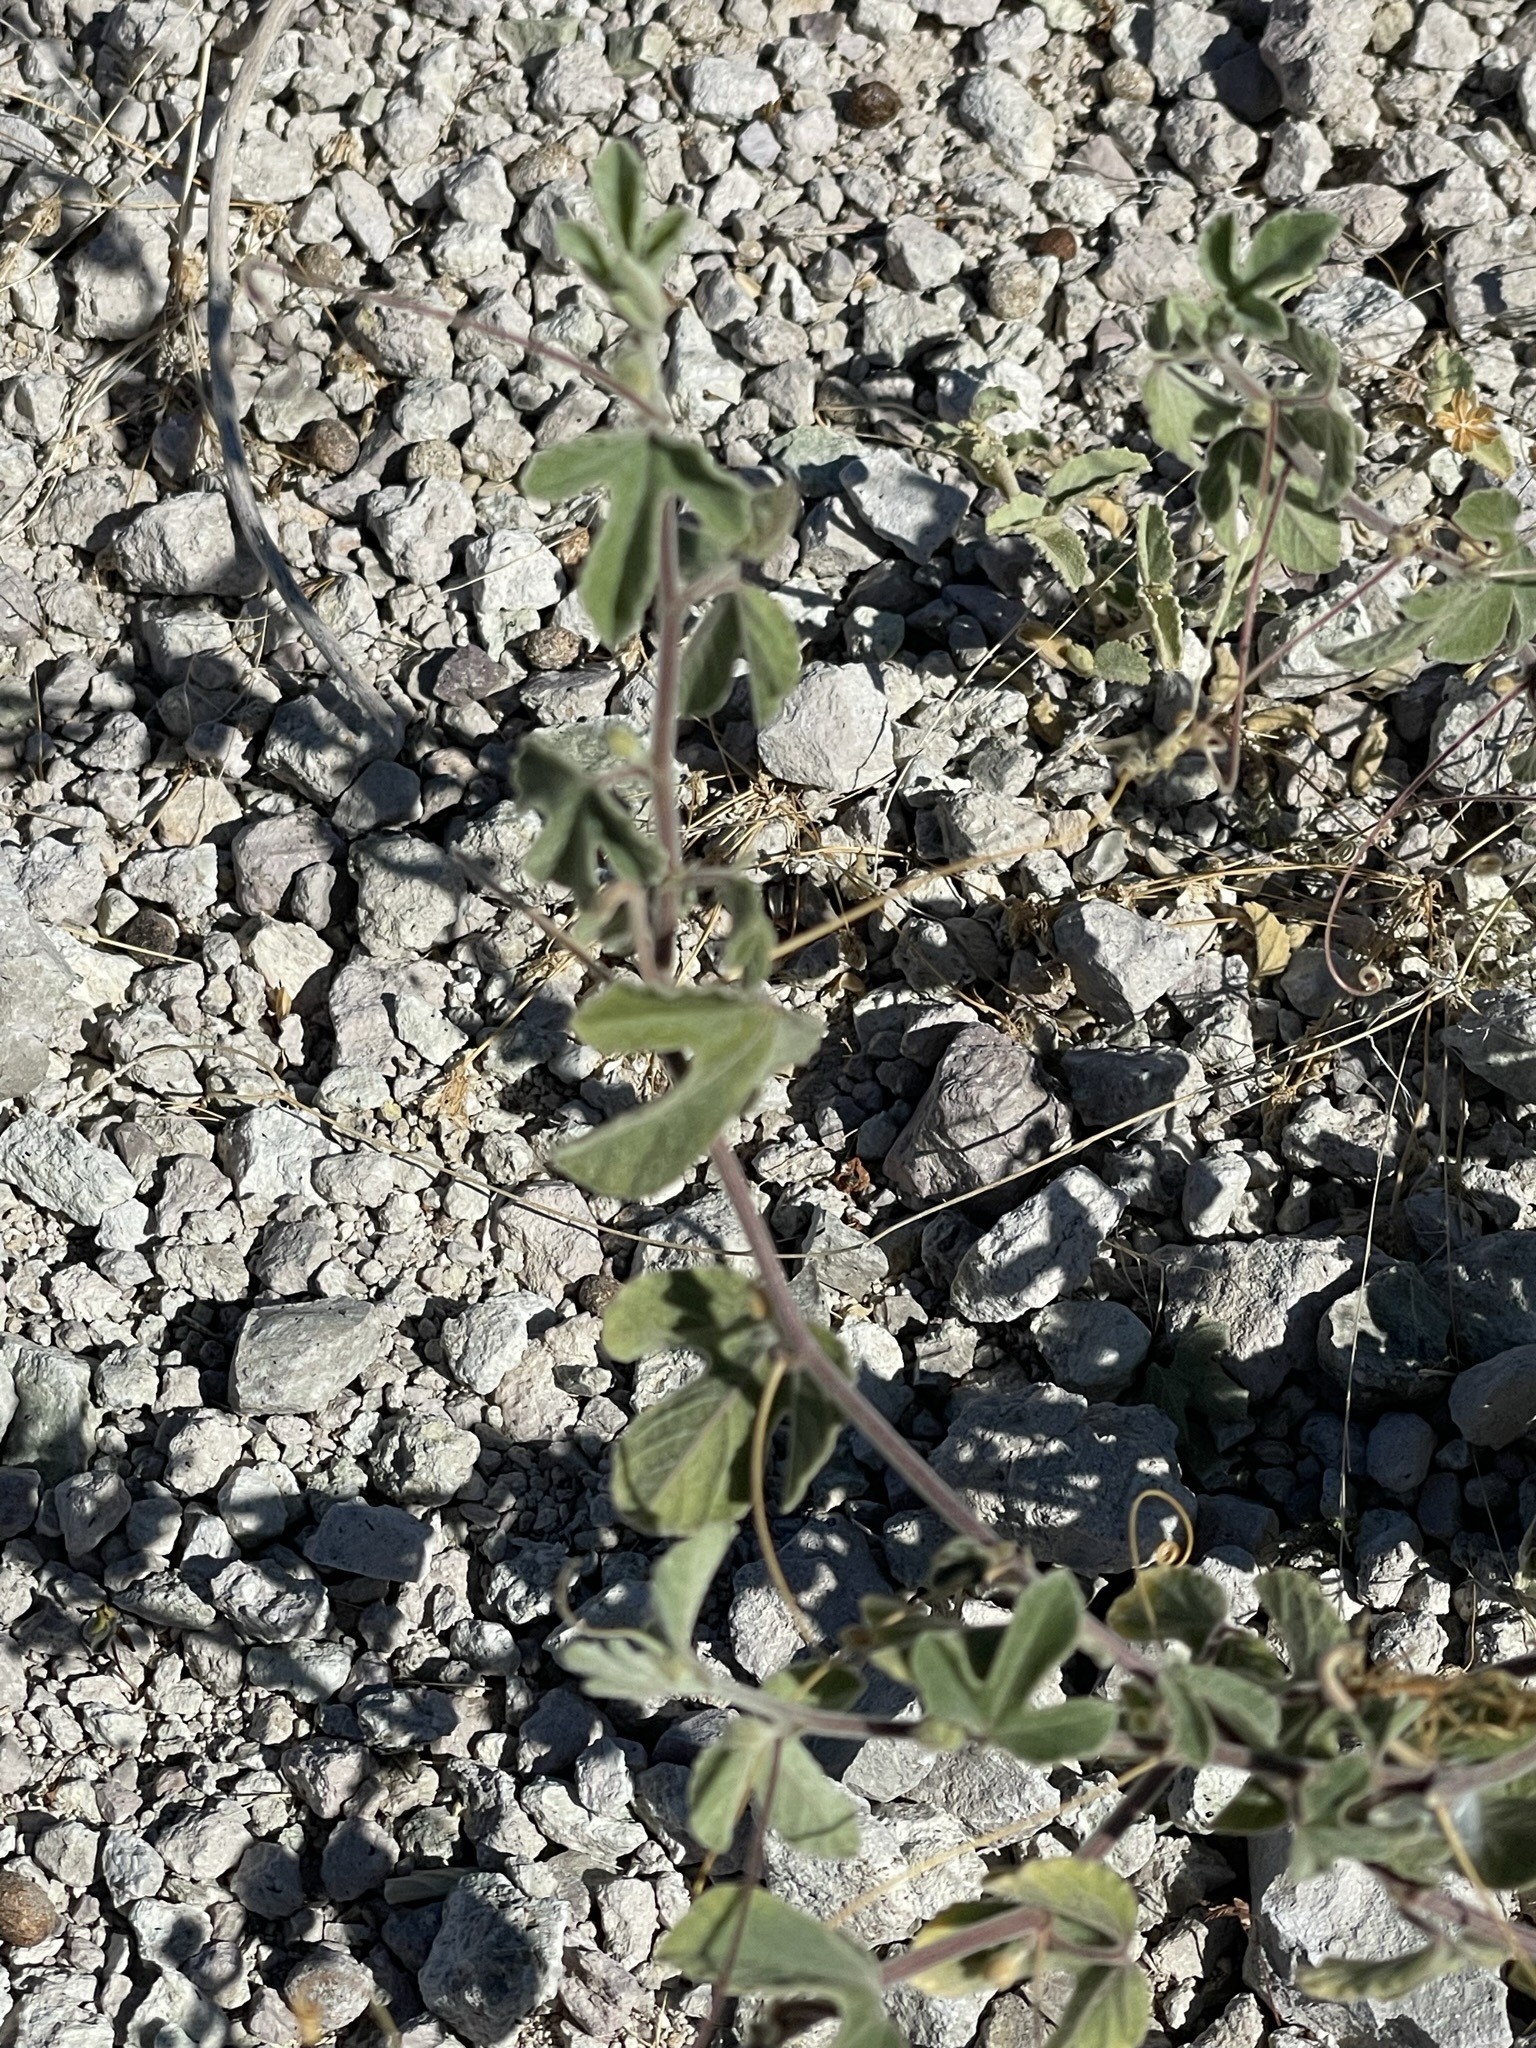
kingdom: Plantae
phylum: Tracheophyta
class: Magnoliopsida
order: Malpighiales
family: Passifloraceae
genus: Passiflora
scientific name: Passiflora palmeri
